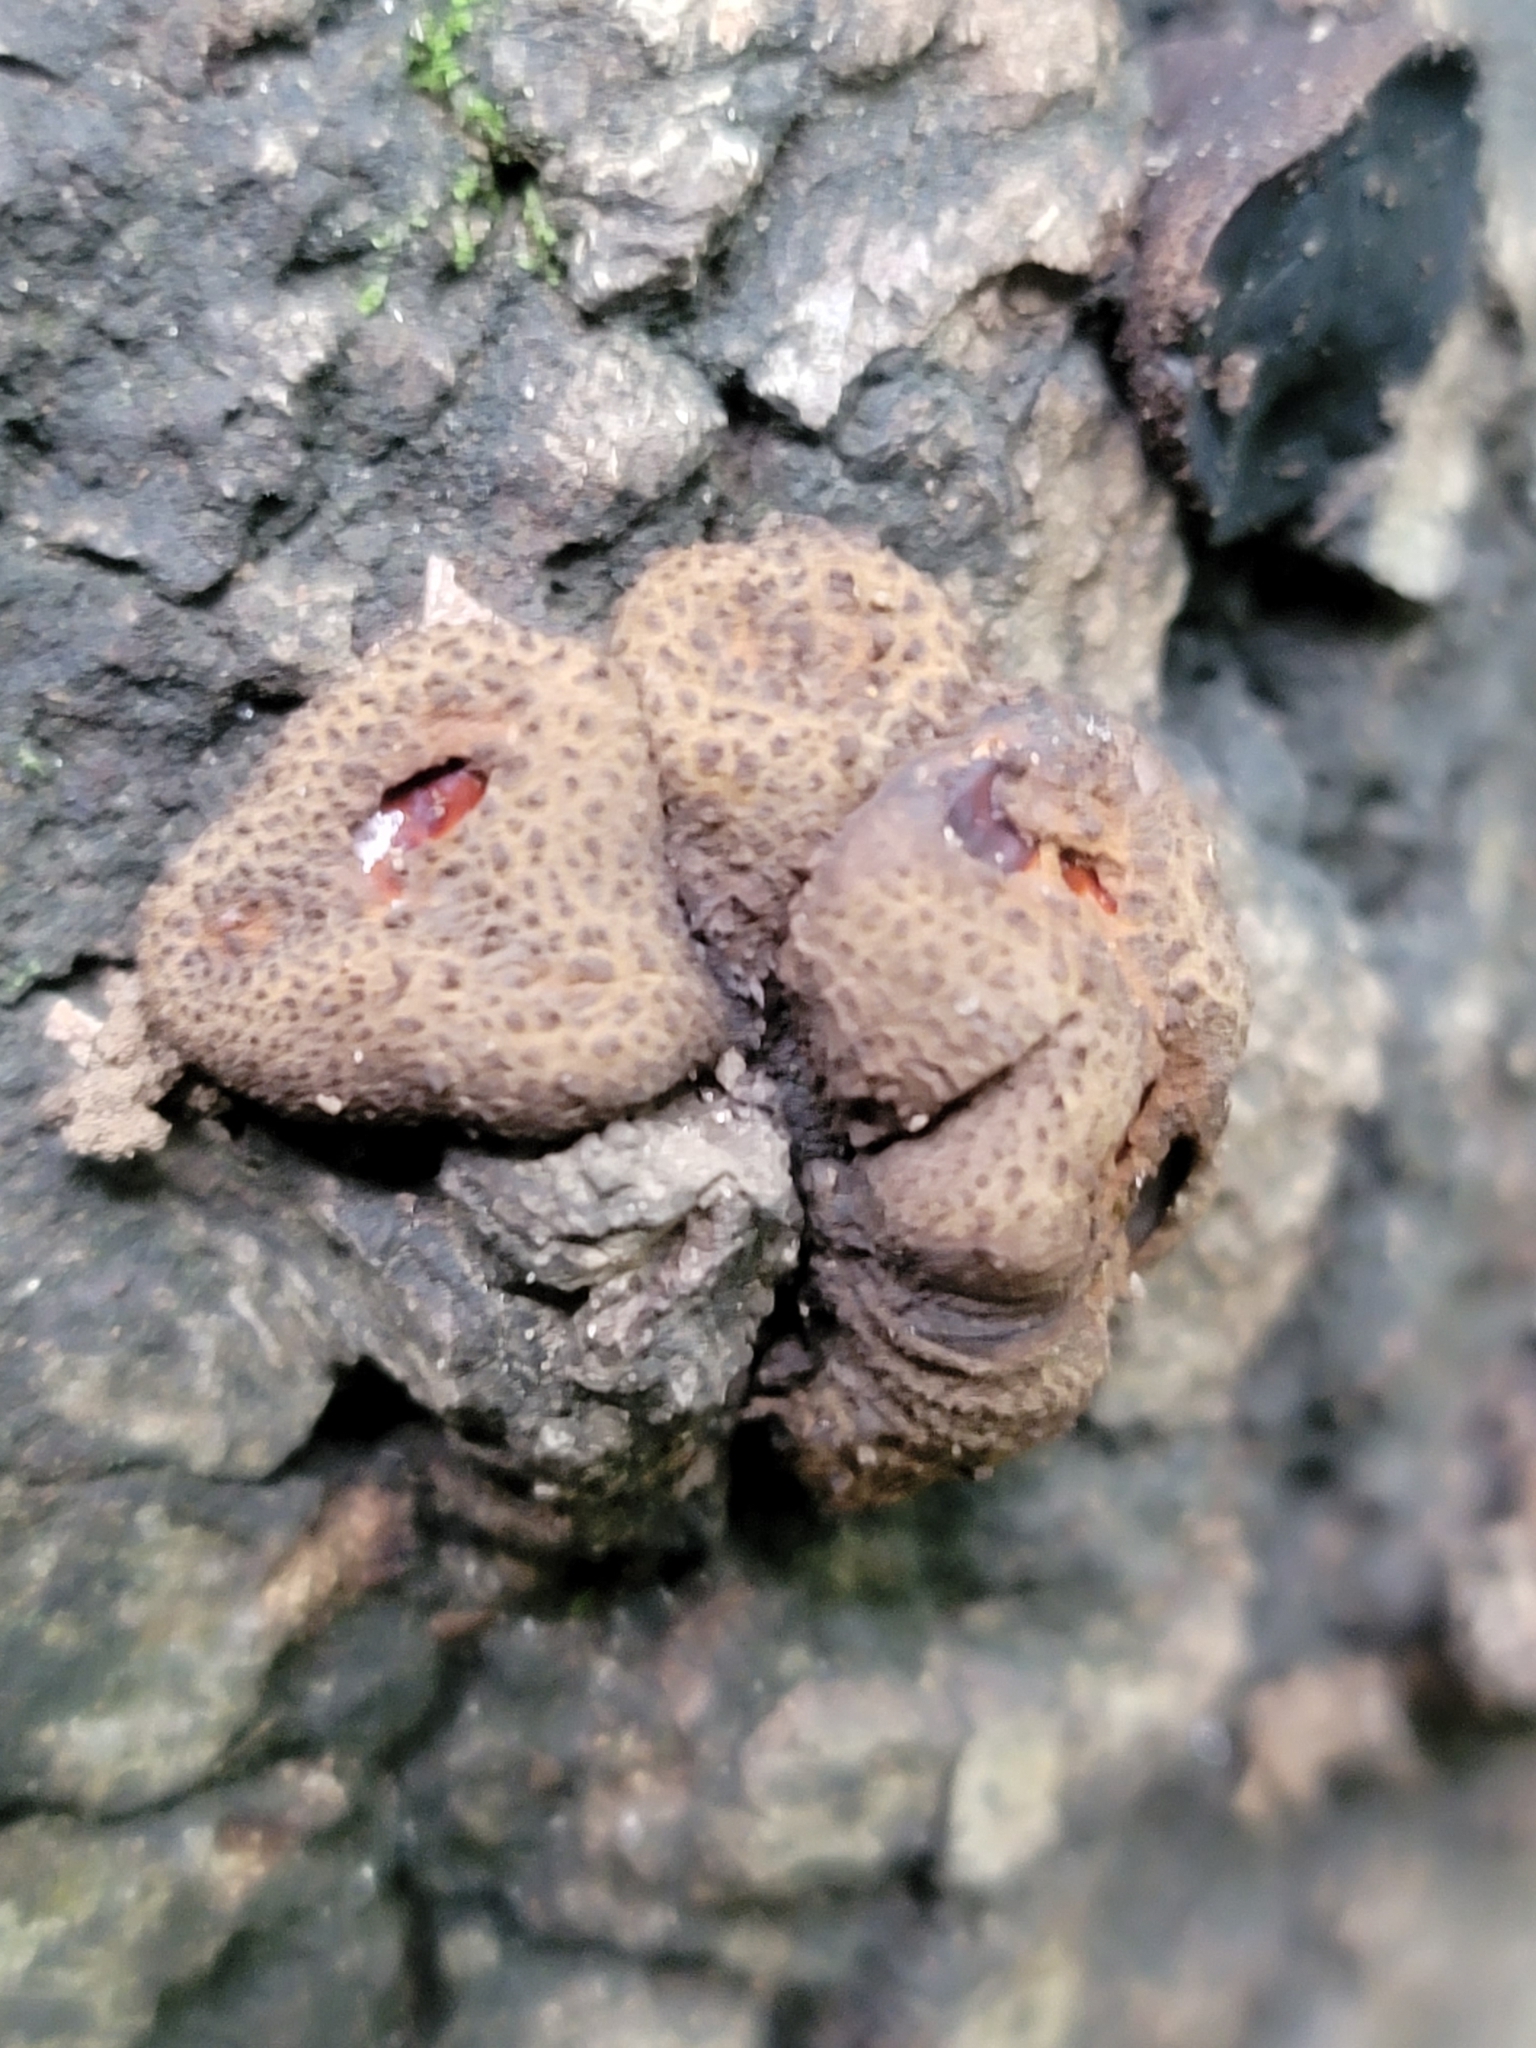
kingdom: Fungi
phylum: Ascomycota
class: Leotiomycetes
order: Phacidiales
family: Phacidiaceae
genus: Bulgaria
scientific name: Bulgaria inquinans
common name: Black bulgar
